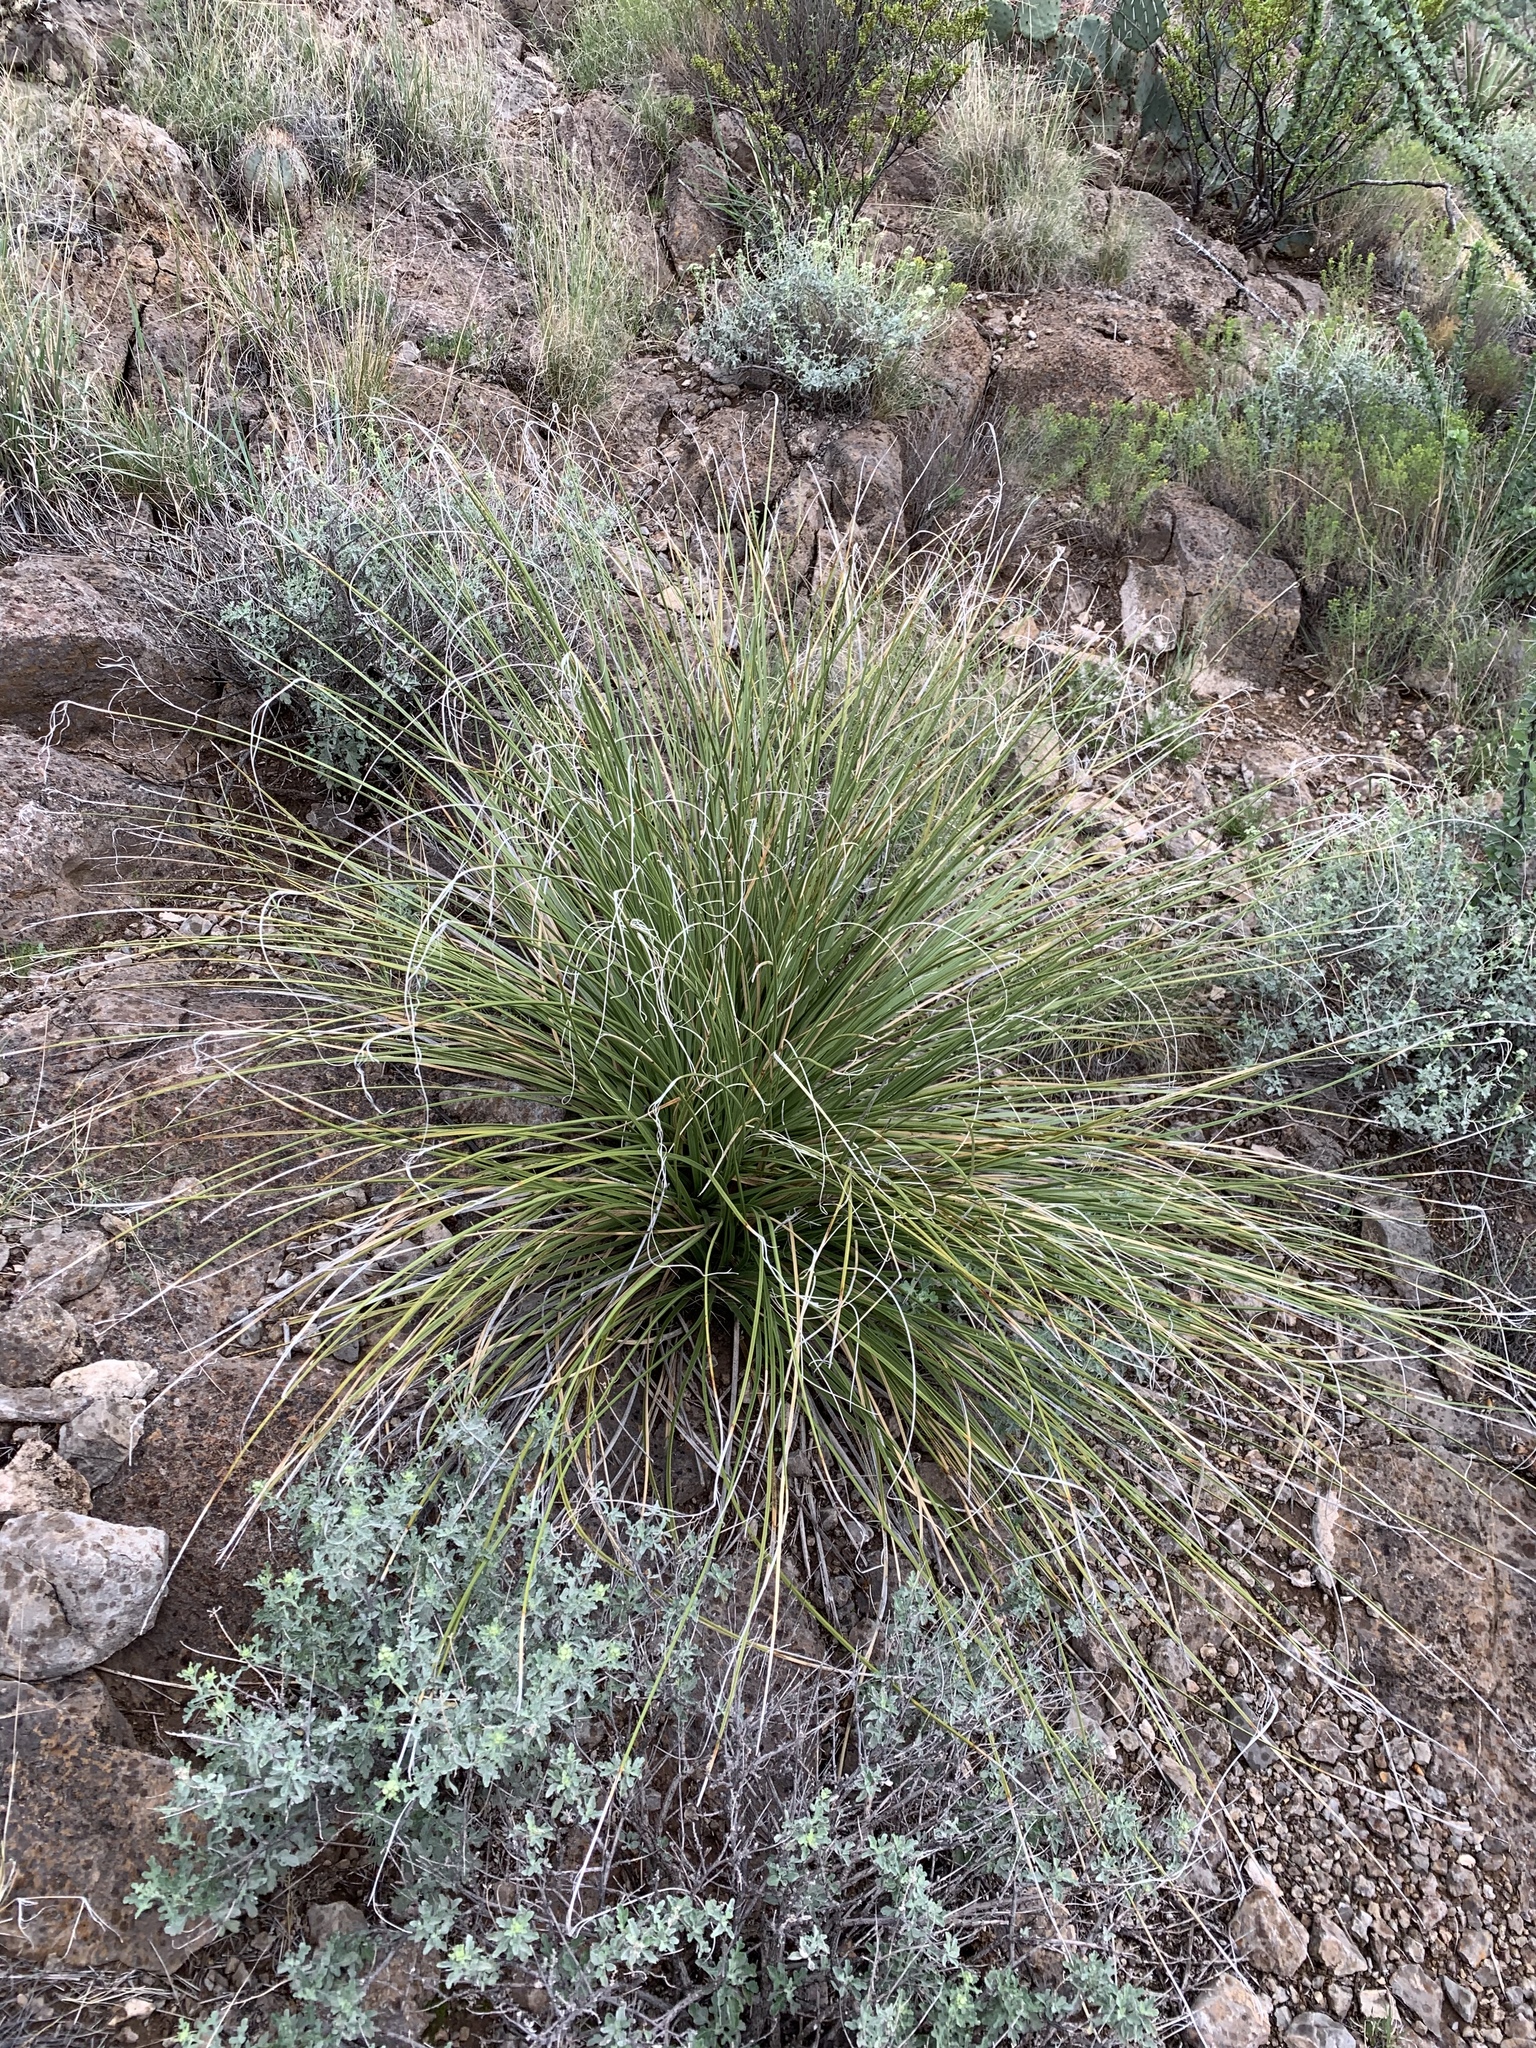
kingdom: Plantae
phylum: Tracheophyta
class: Liliopsida
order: Asparagales
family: Asparagaceae
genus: Nolina
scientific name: Nolina texana
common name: Texas sacahuiste
